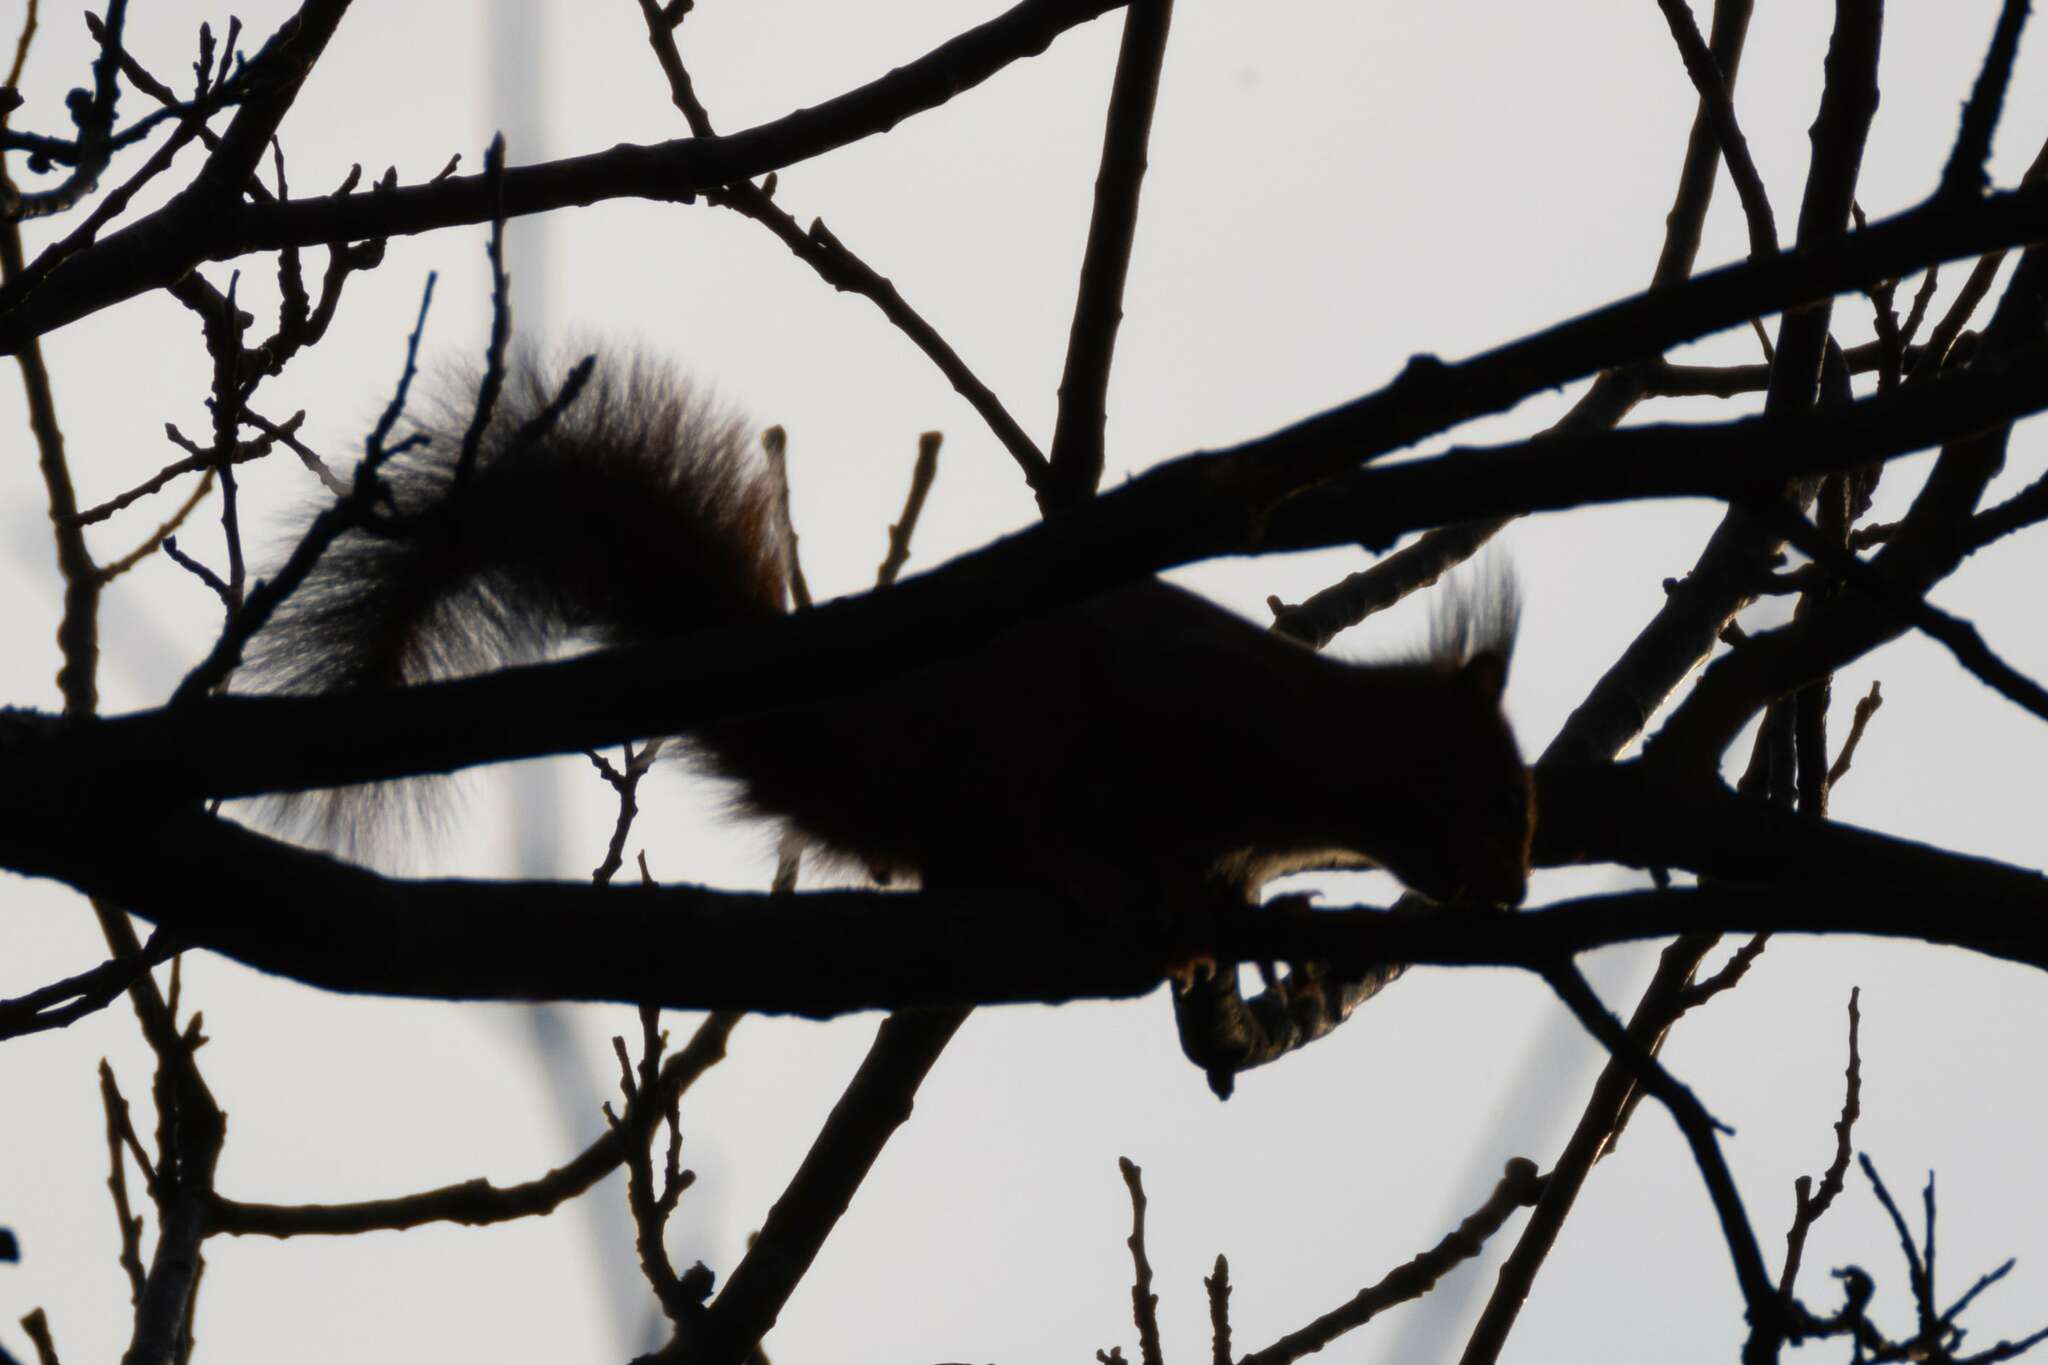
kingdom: Animalia
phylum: Chordata
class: Mammalia
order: Rodentia
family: Sciuridae
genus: Sciurus
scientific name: Sciurus vulgaris
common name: Eurasian red squirrel
